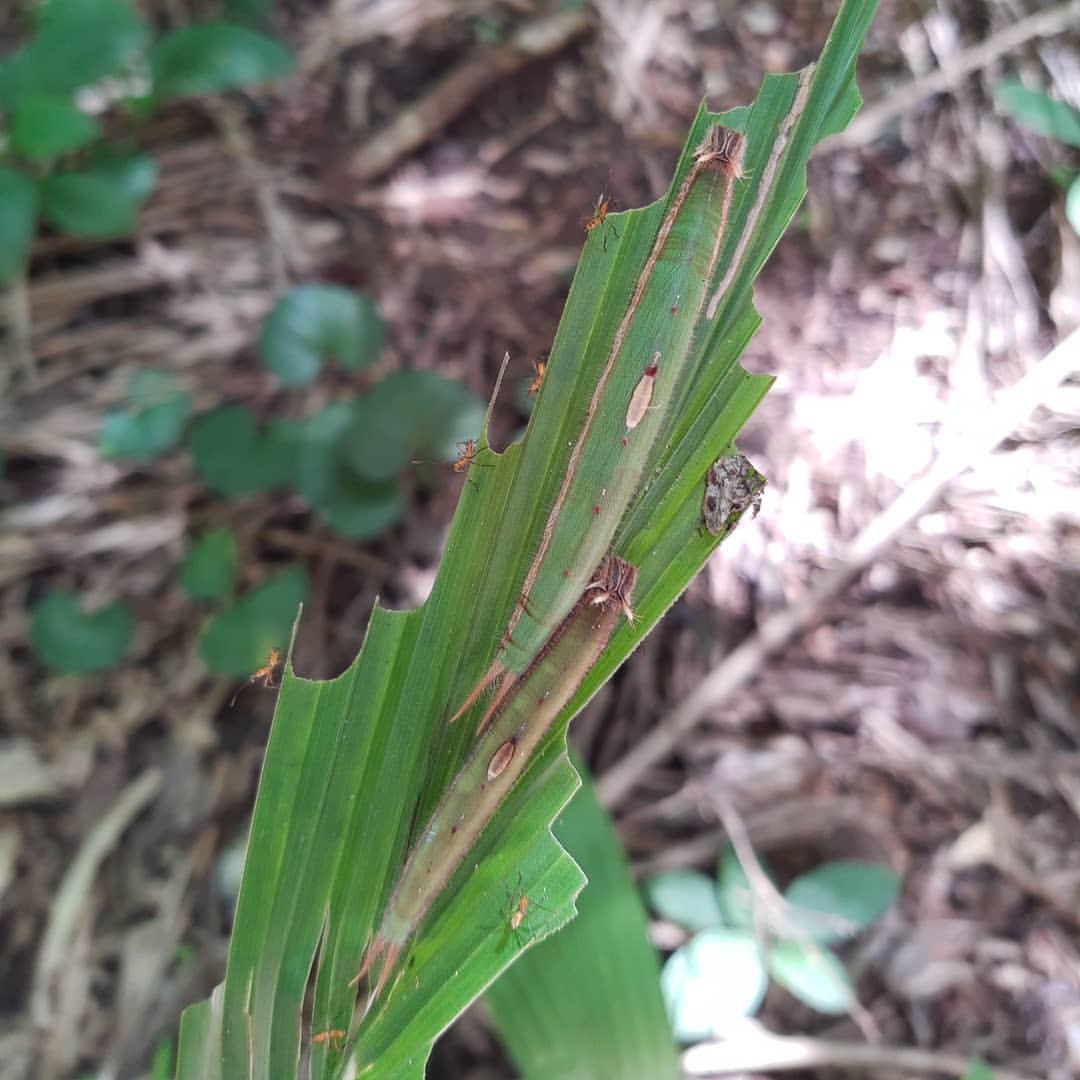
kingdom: Animalia
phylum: Arthropoda
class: Insecta
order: Lepidoptera
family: Nymphalidae
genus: Caligo
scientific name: Caligo beltrao
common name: Purple owl-butterfly
